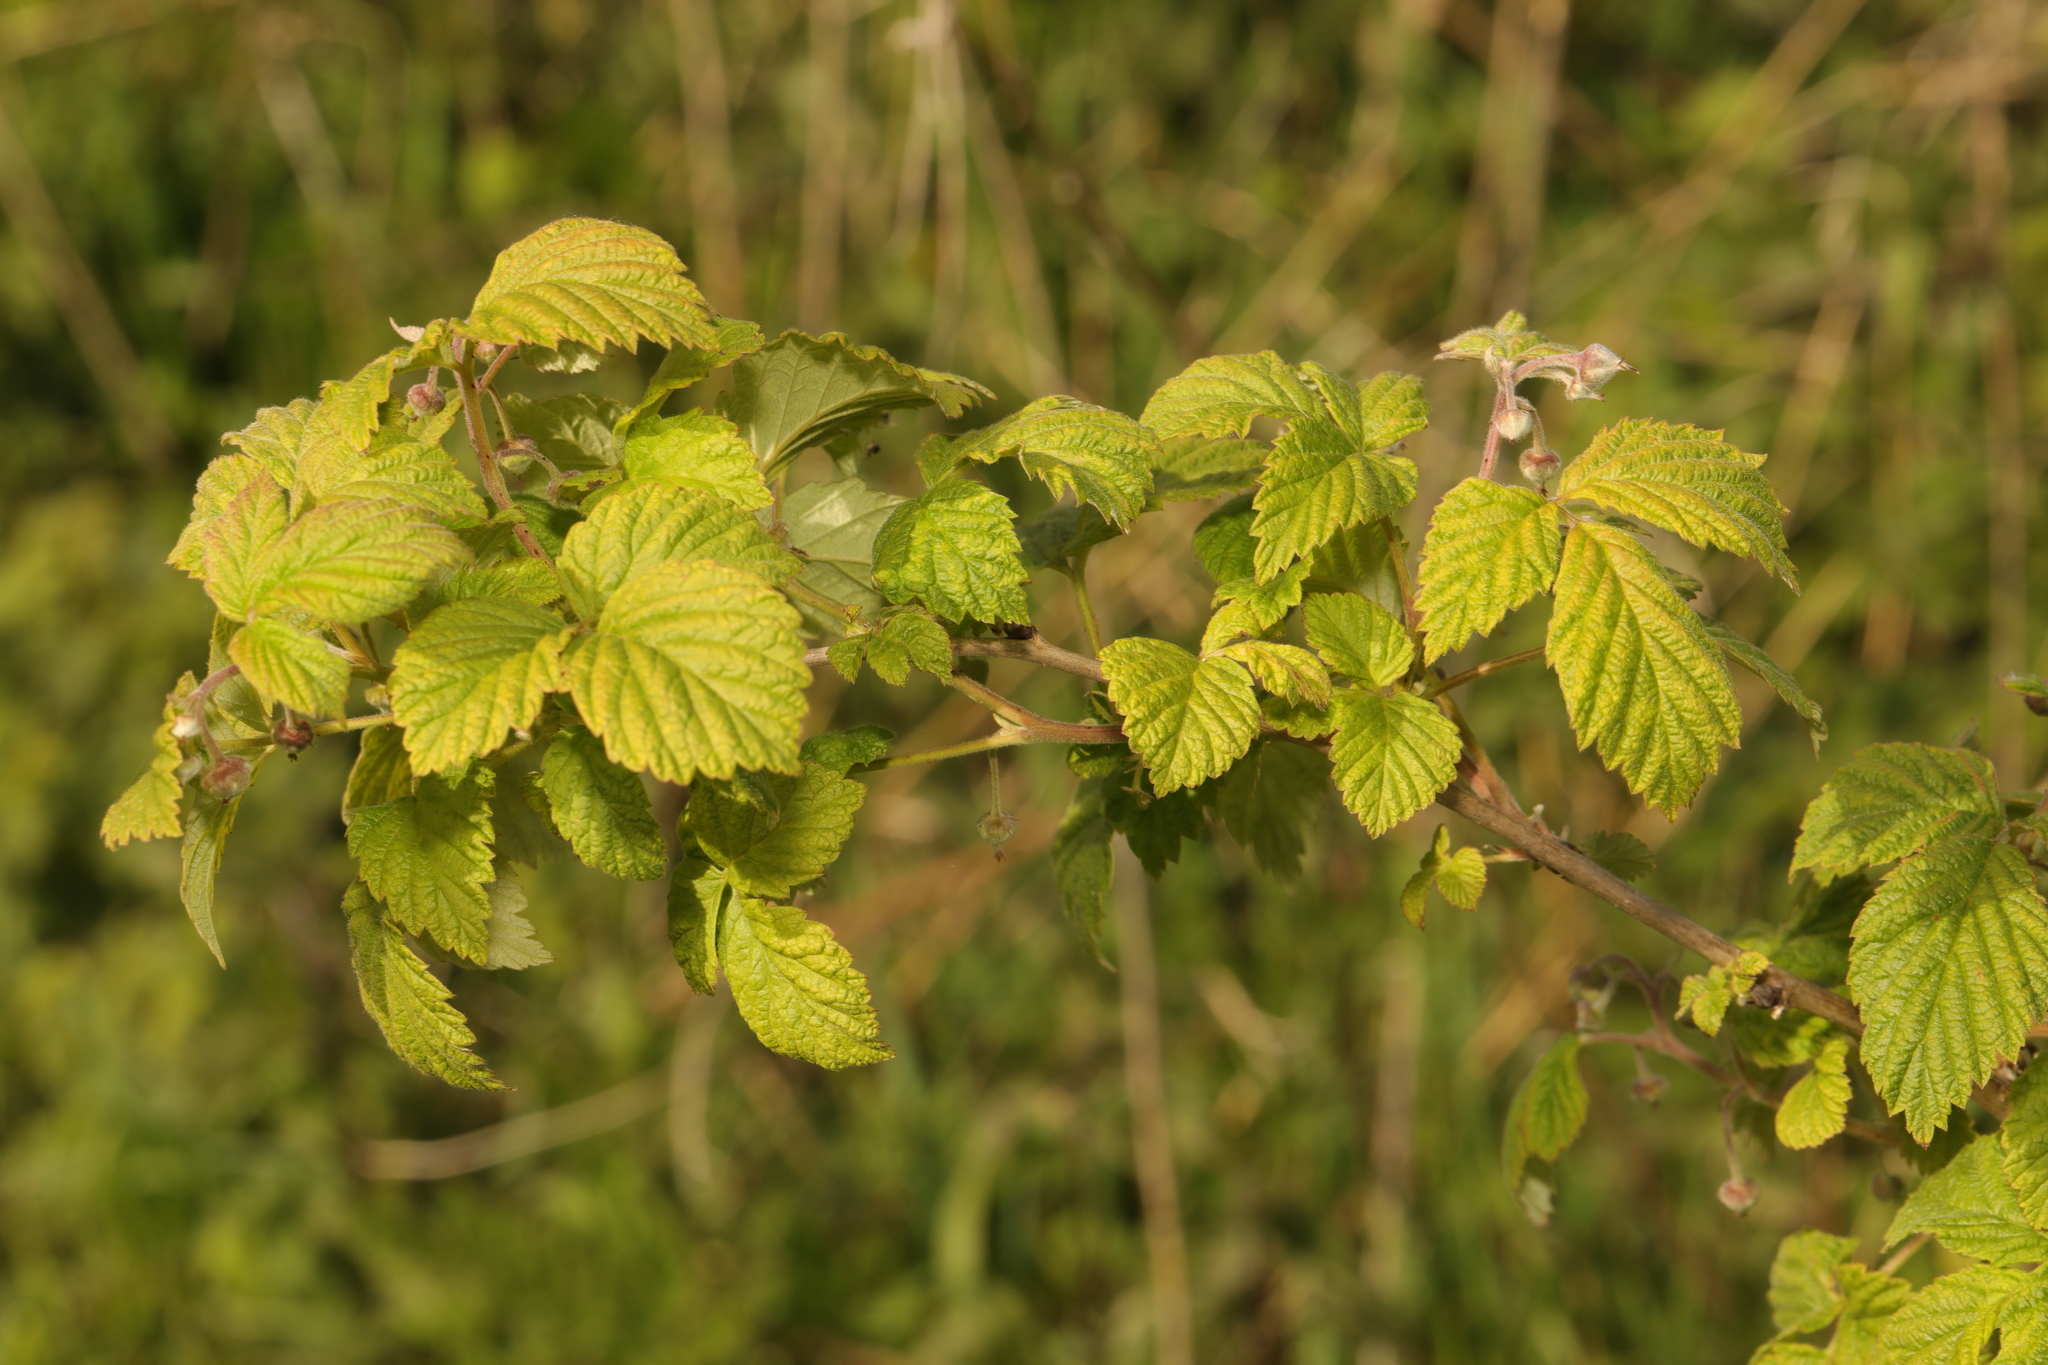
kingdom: Plantae
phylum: Tracheophyta
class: Magnoliopsida
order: Rosales
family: Rosaceae
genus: Rubus
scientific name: Rubus idaeus
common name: Raspberry
